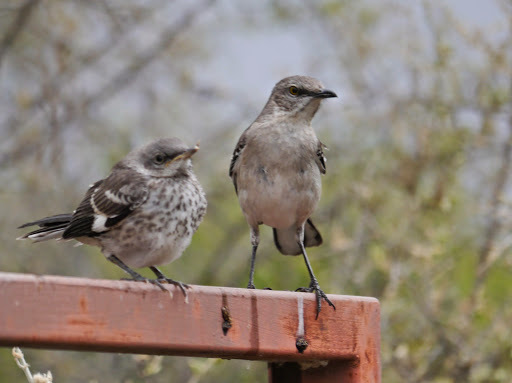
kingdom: Animalia
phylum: Chordata
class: Aves
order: Passeriformes
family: Mimidae
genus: Mimus
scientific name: Mimus polyglottos
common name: Northern mockingbird
